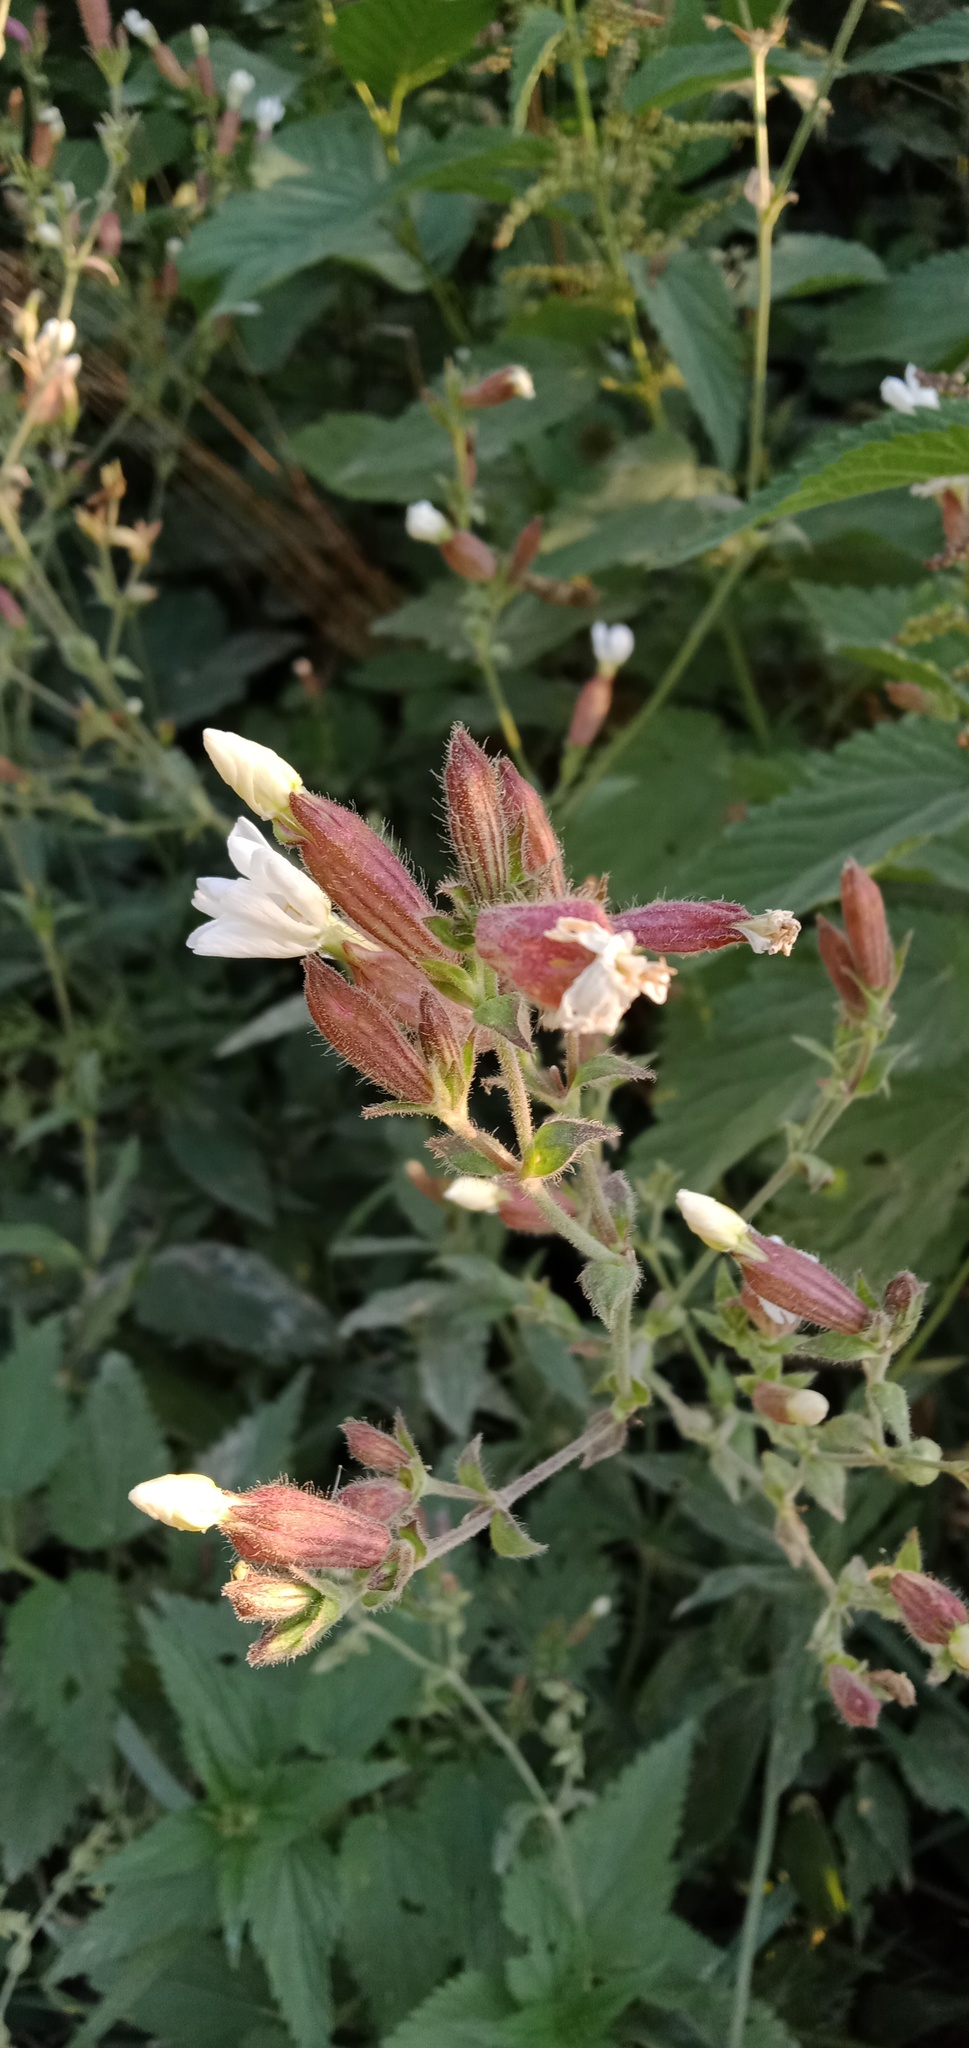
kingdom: Plantae
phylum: Tracheophyta
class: Magnoliopsida
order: Caryophyllales
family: Caryophyllaceae
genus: Silene
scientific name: Silene latifolia
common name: White campion
